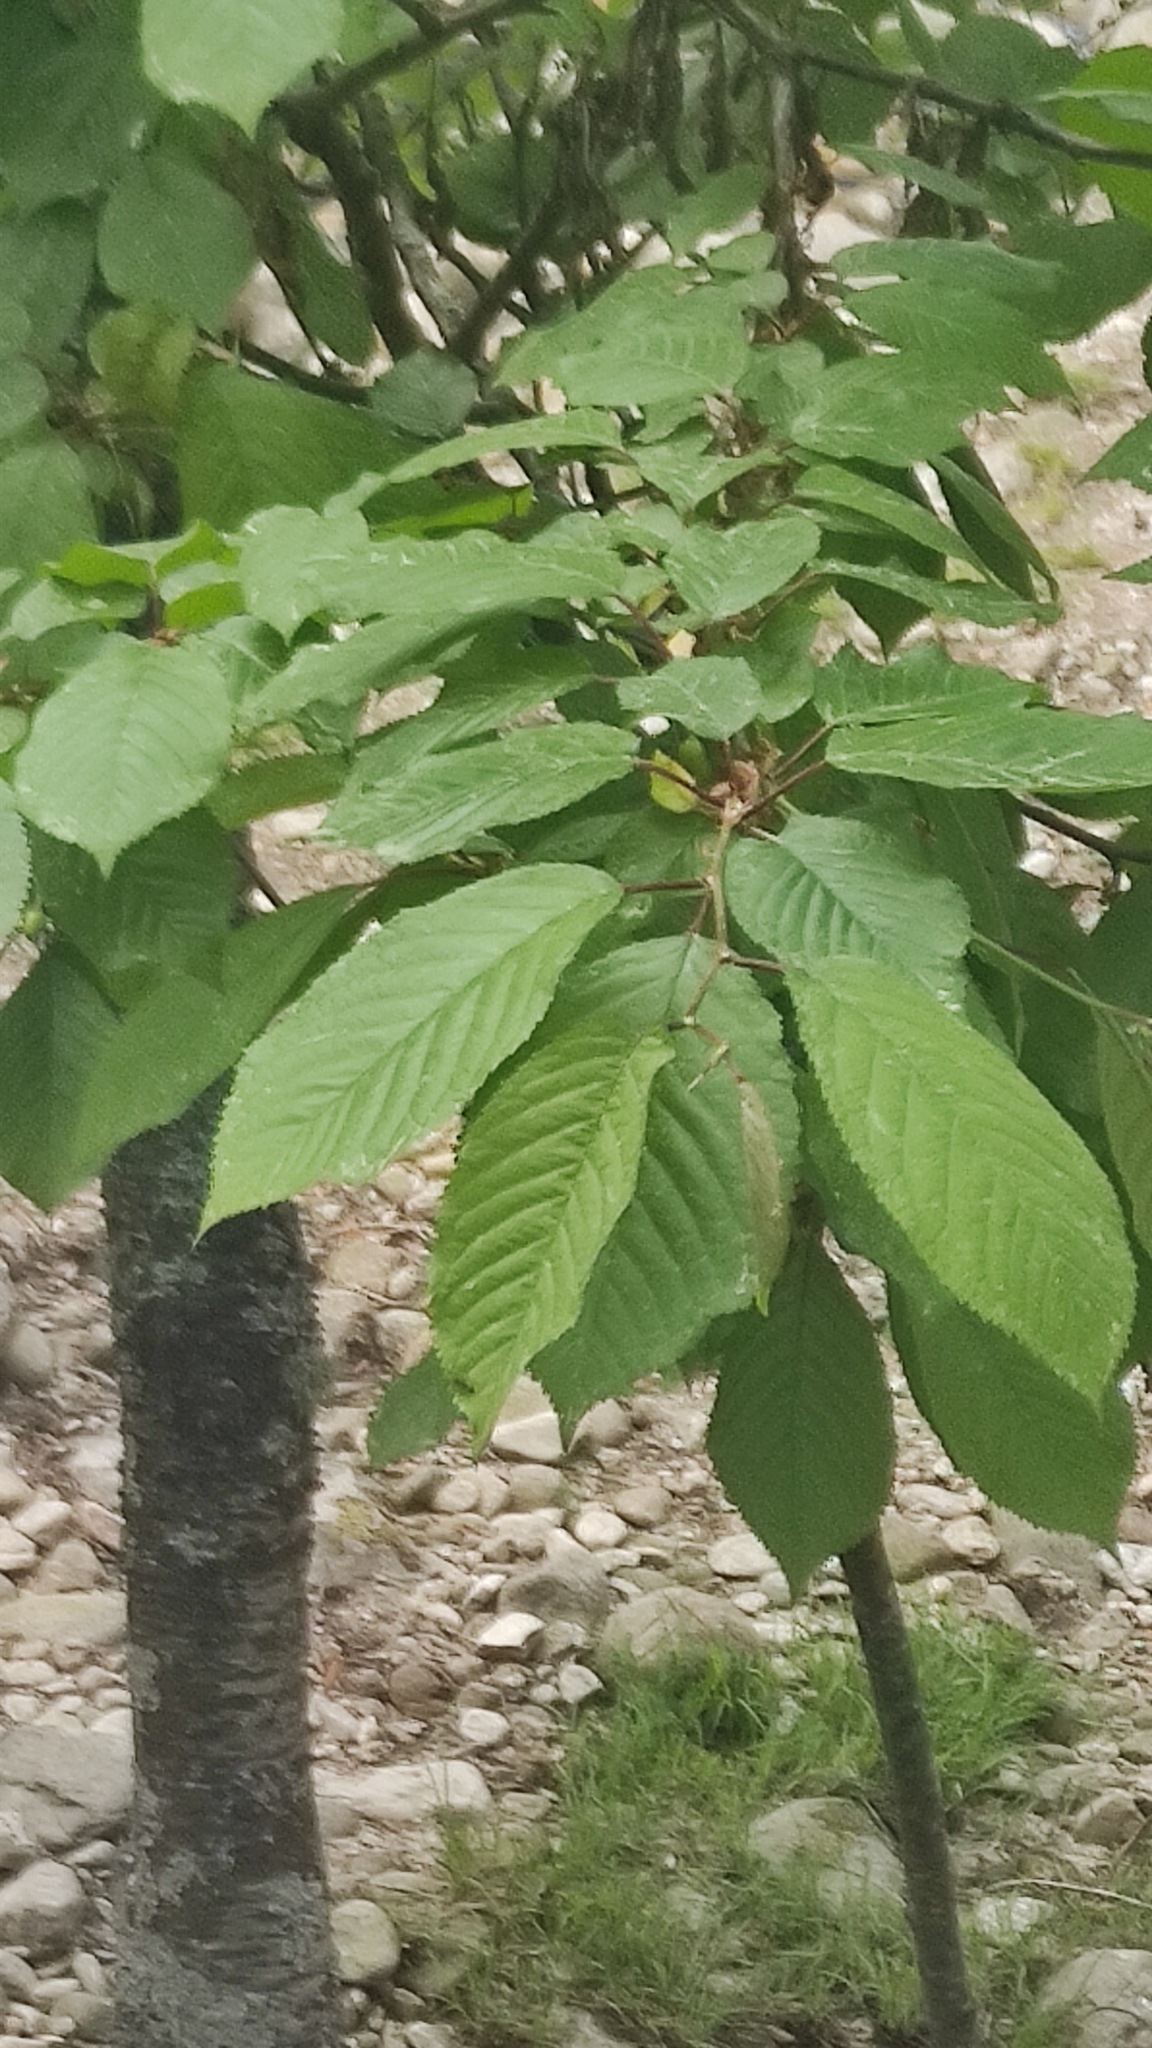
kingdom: Plantae
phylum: Tracheophyta
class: Magnoliopsida
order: Fagales
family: Fagaceae
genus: Castanea
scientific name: Castanea sativa
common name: Sweet chestnut
